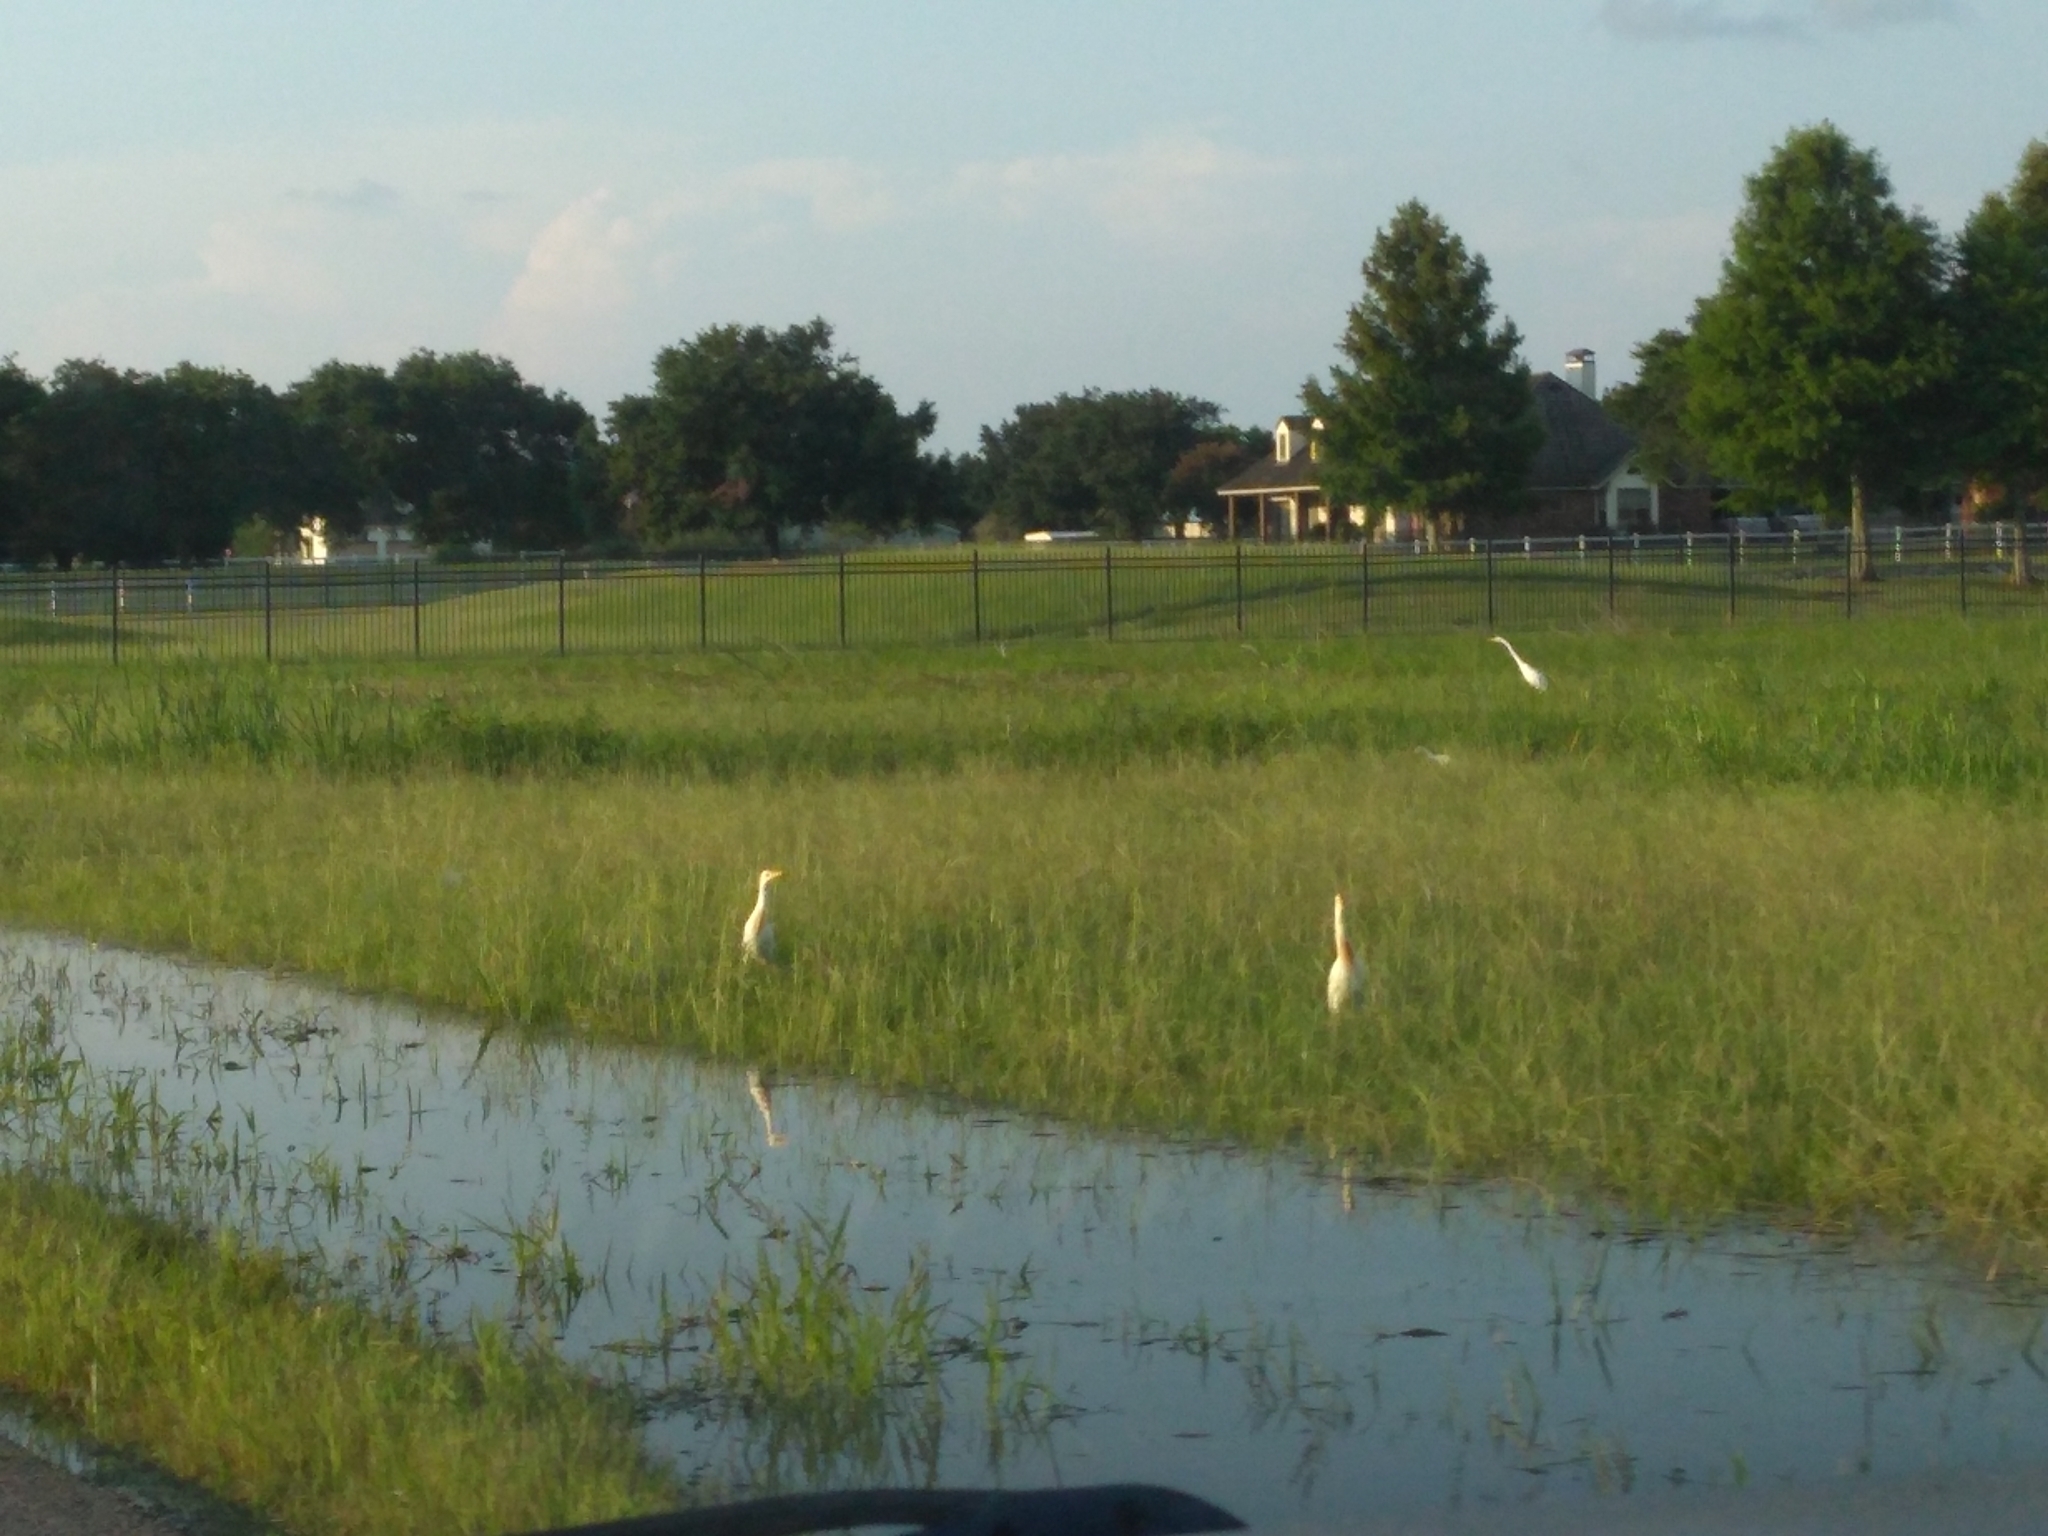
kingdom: Animalia
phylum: Chordata
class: Aves
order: Pelecaniformes
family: Ardeidae
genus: Bubulcus
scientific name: Bubulcus ibis
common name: Cattle egret
